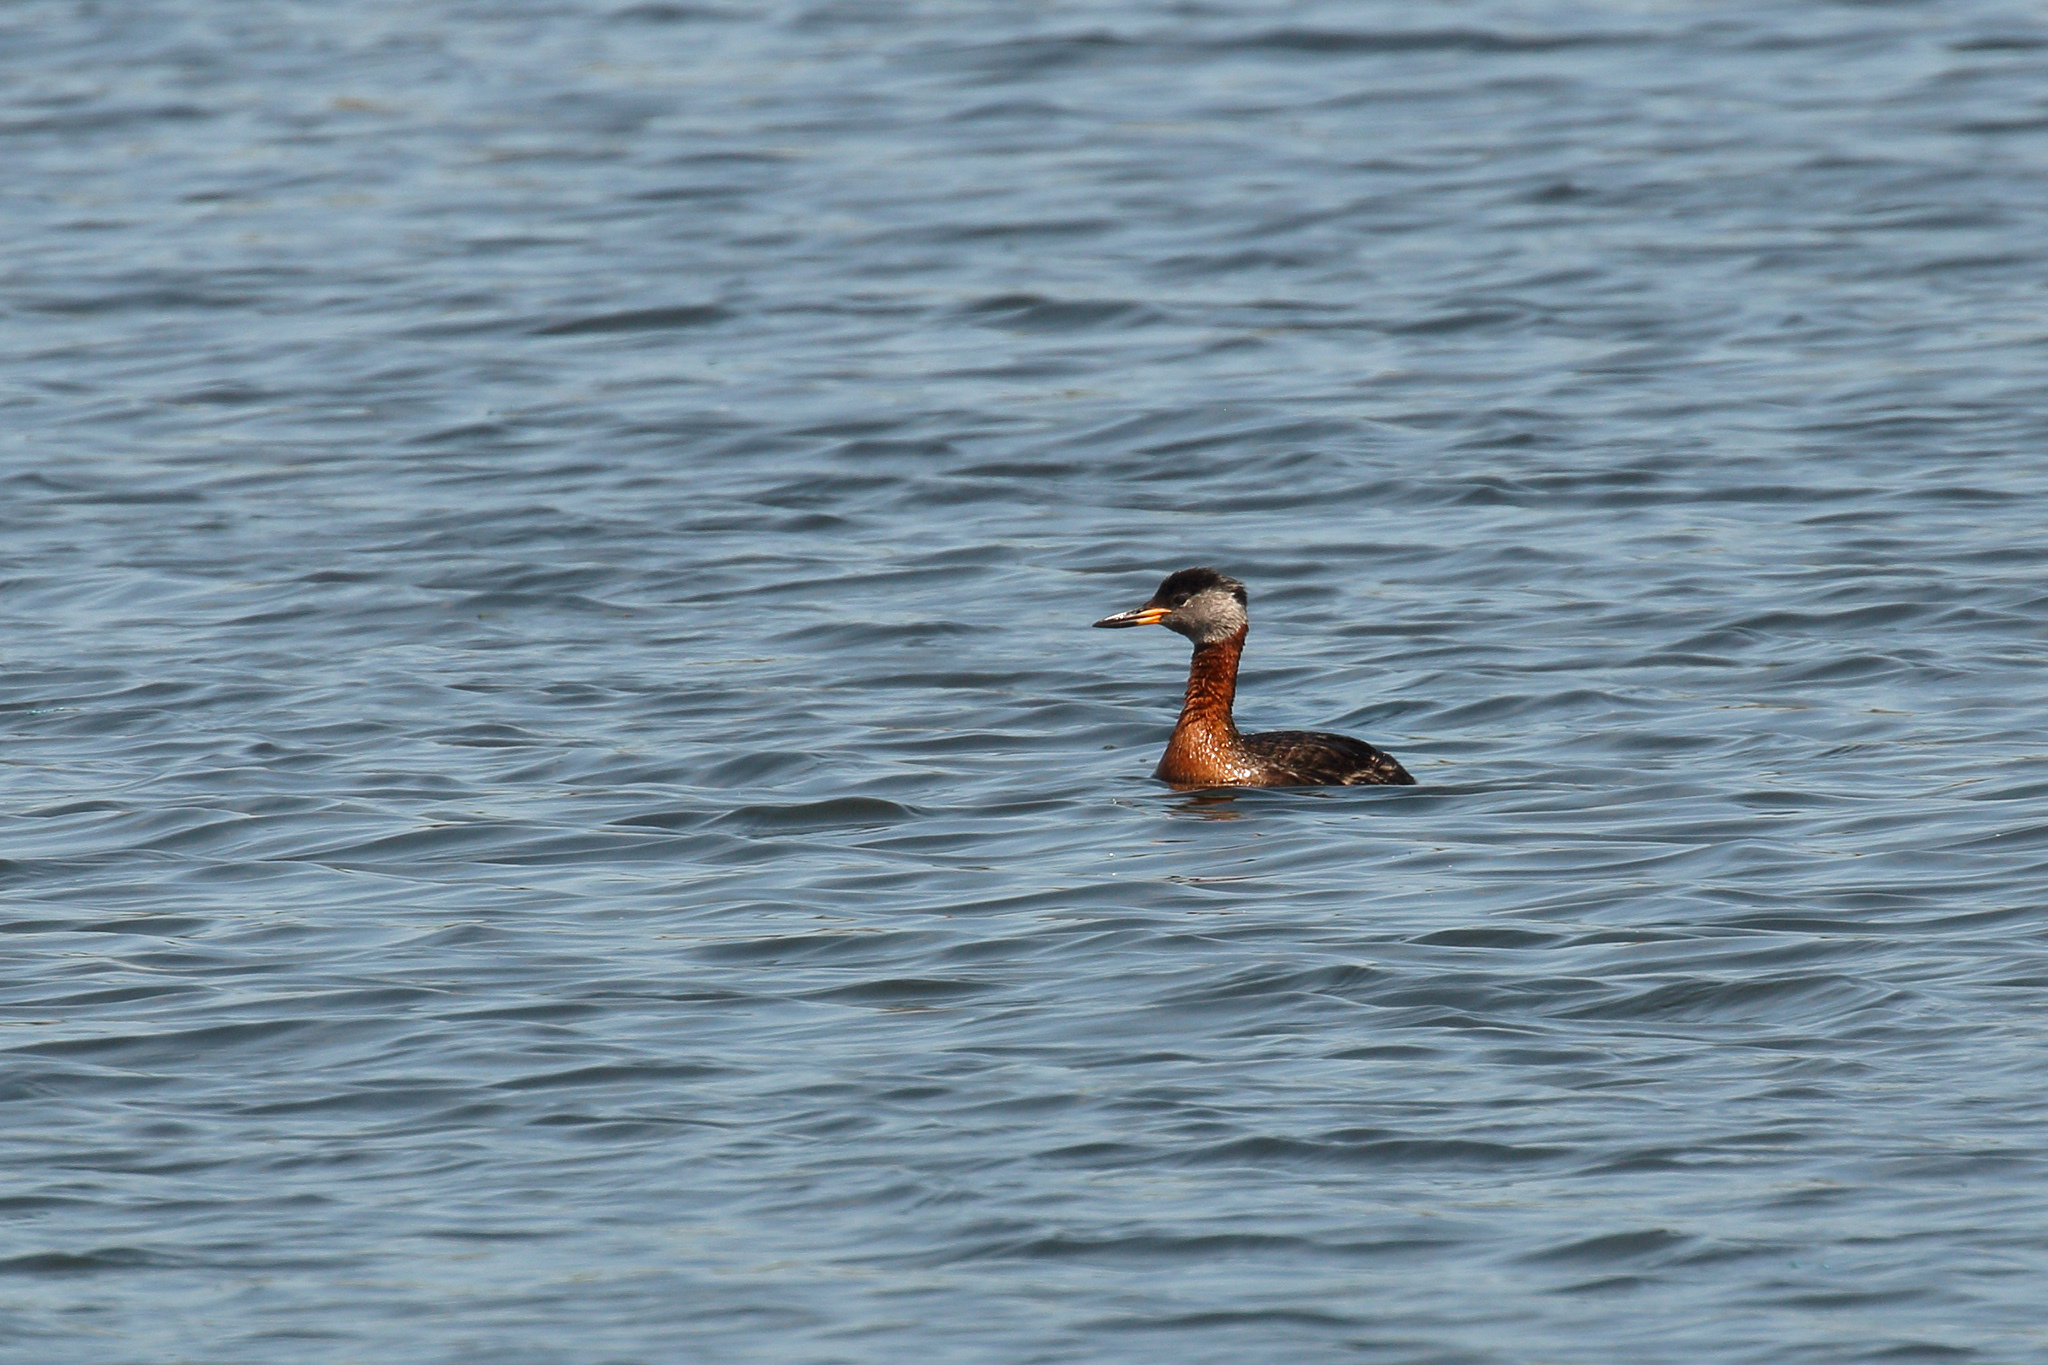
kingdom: Animalia
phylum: Chordata
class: Aves
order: Podicipediformes
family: Podicipedidae
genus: Podiceps
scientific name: Podiceps grisegena
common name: Red-necked grebe
